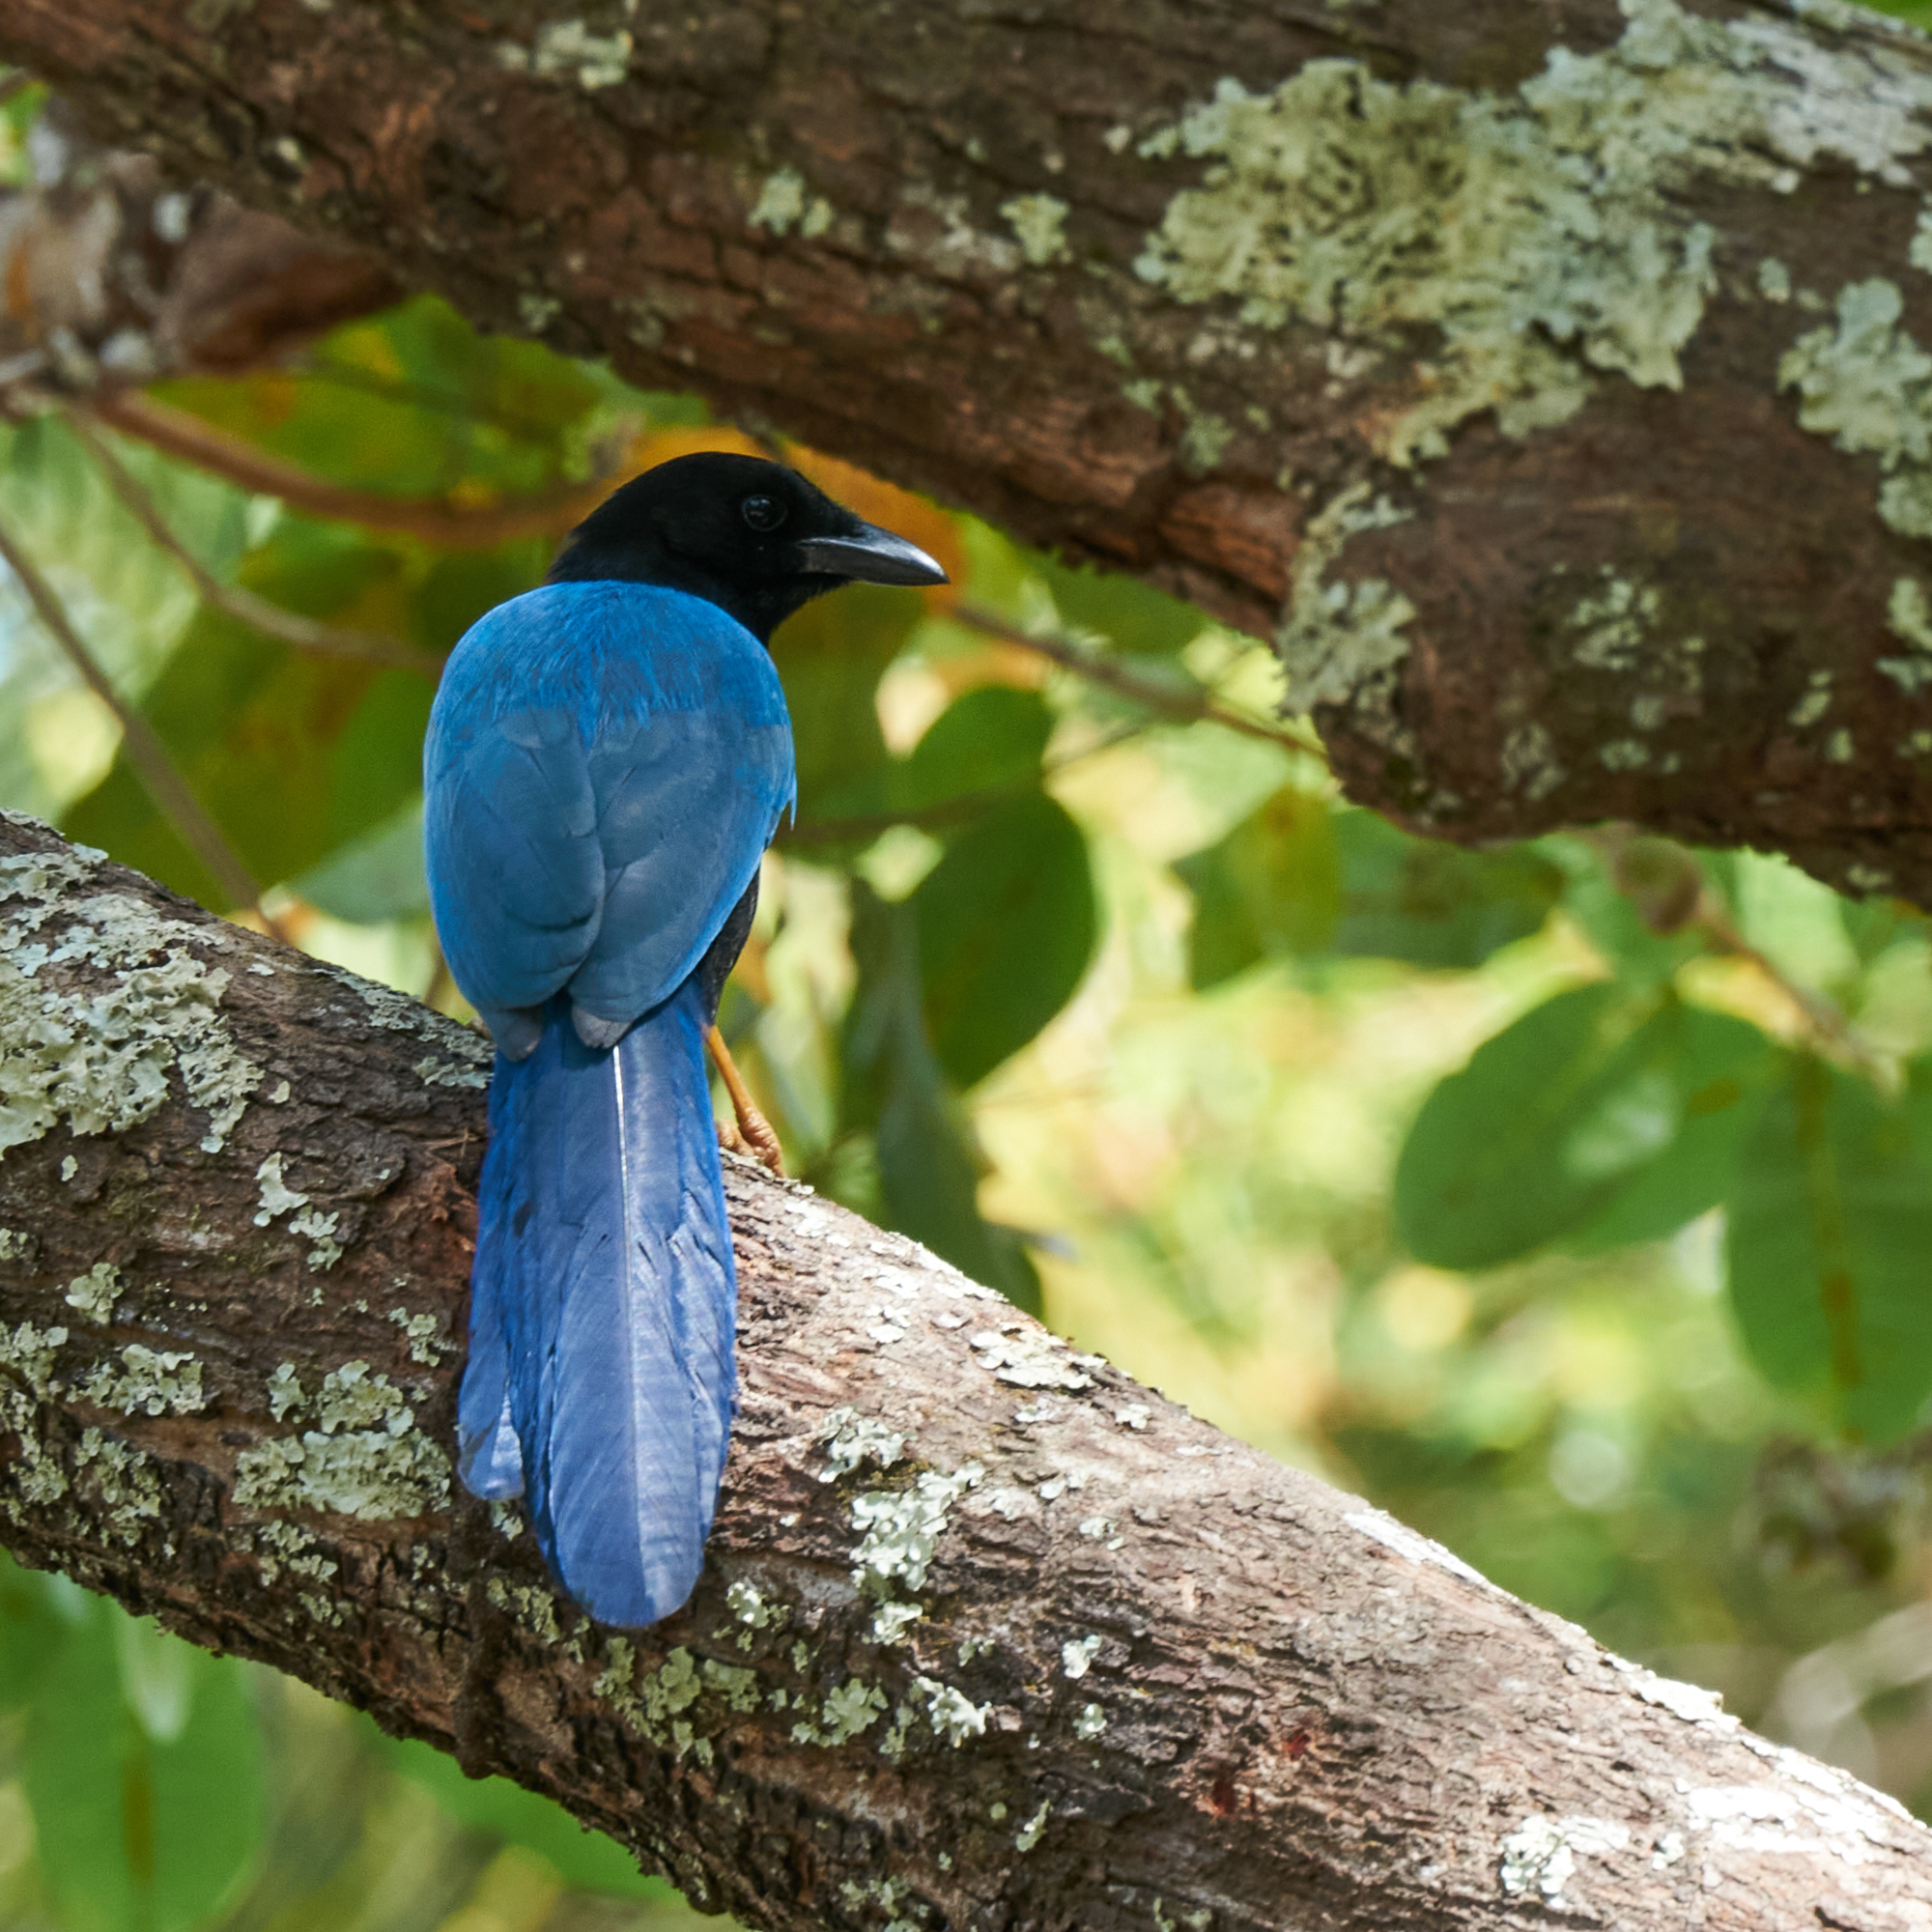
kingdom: Animalia
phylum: Chordata
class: Aves
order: Passeriformes
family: Corvidae
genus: Cyanocorax
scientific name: Cyanocorax yucatanicus
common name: Yucatan jay
